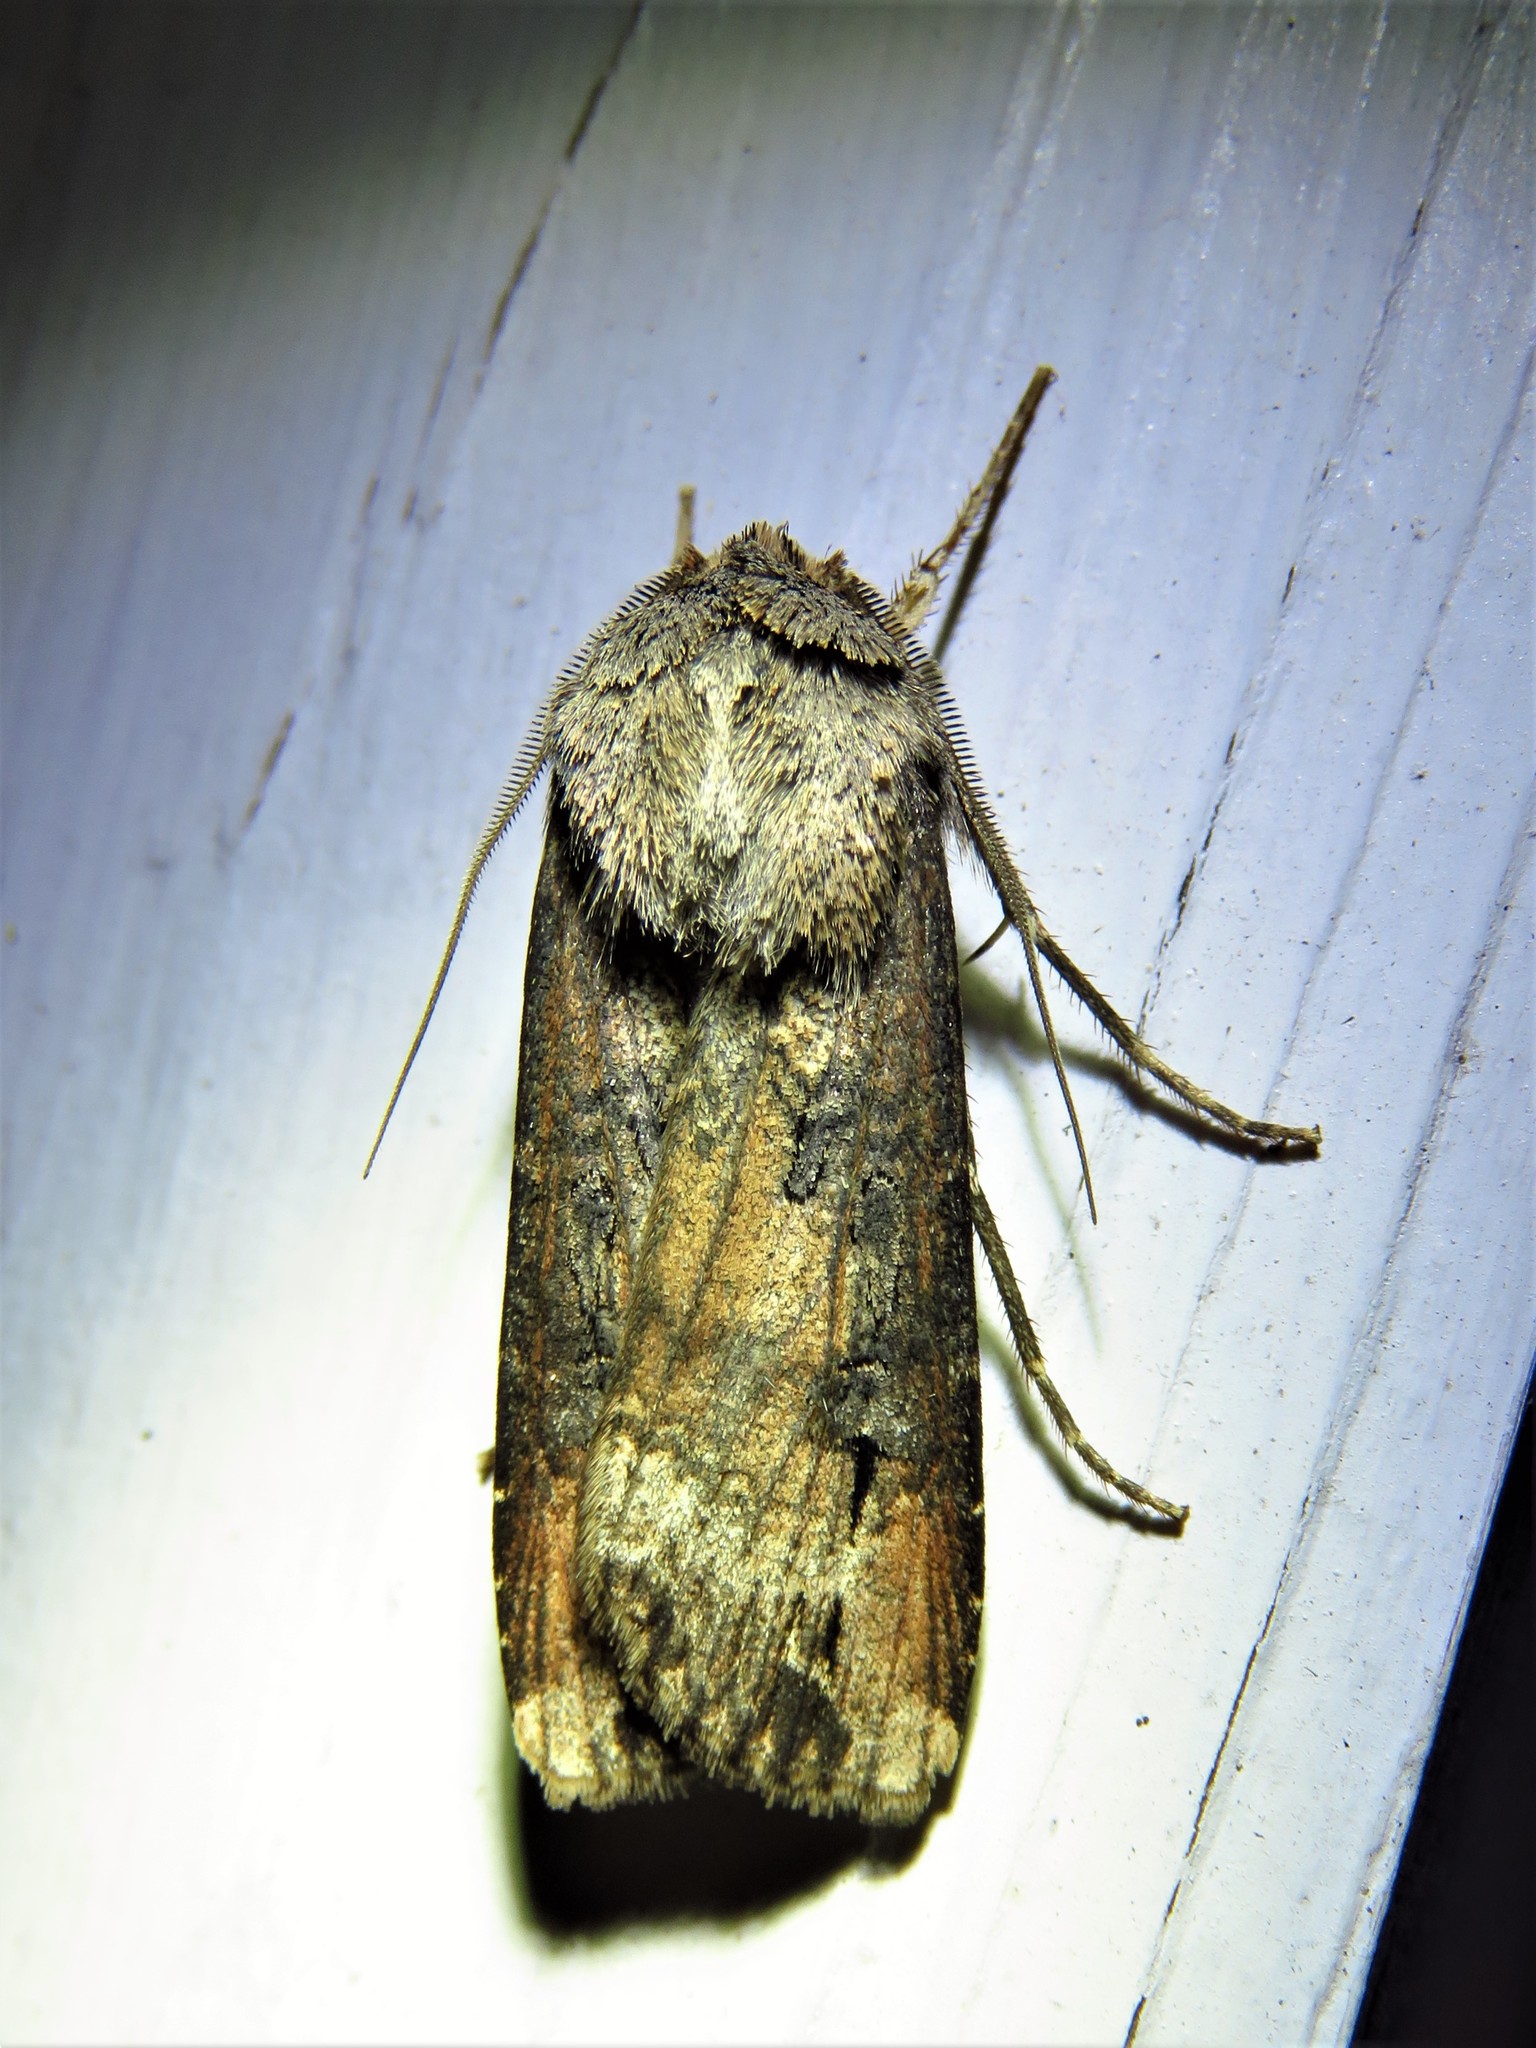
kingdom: Animalia
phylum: Arthropoda
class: Insecta
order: Lepidoptera
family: Noctuidae
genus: Agrotis
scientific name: Agrotis ipsilon
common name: Dark sword-grass
